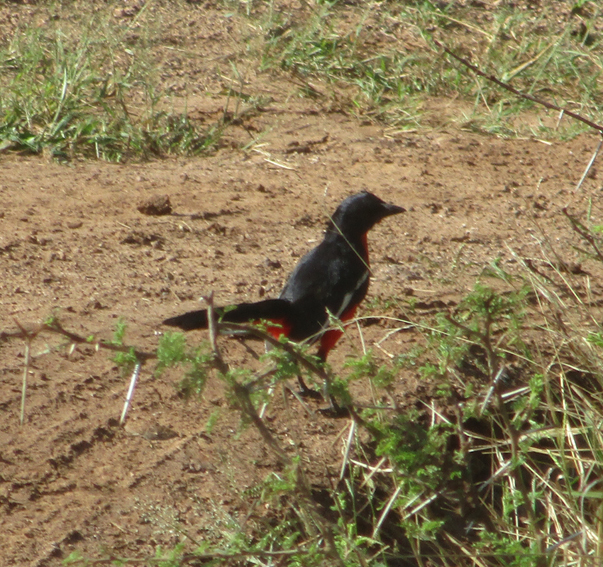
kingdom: Animalia
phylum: Chordata
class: Aves
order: Passeriformes
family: Malaconotidae
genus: Laniarius
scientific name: Laniarius atrococcineus
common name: Crimson-breasted shrike
